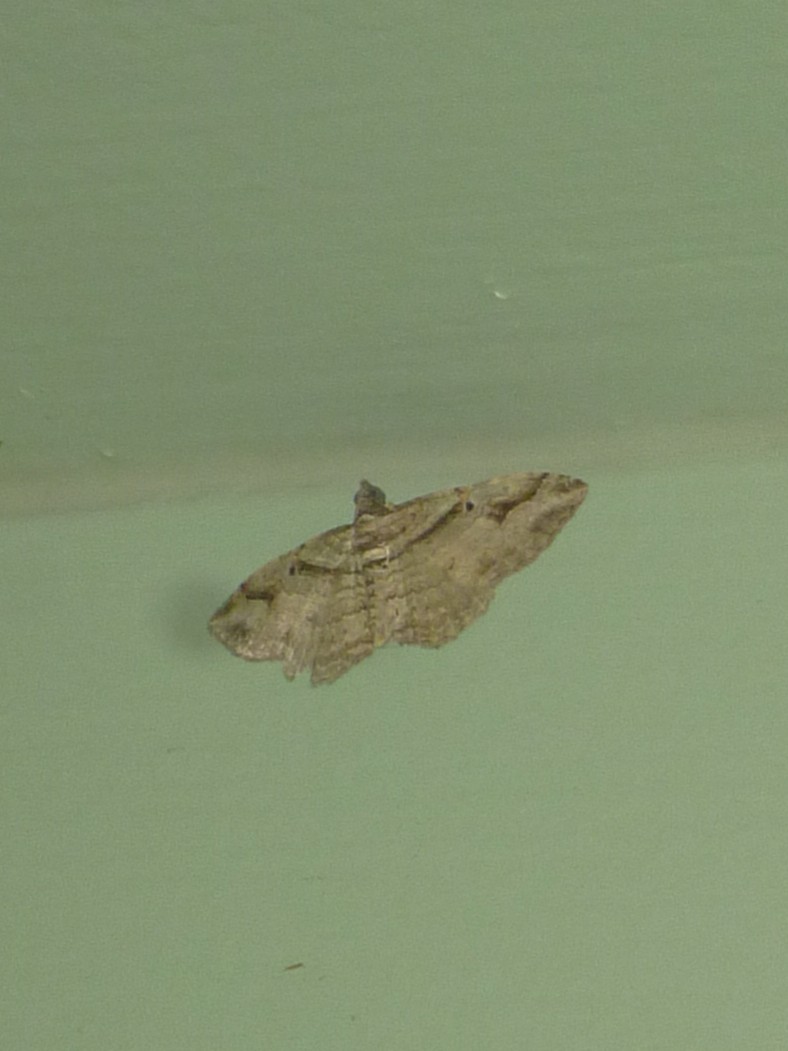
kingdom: Animalia
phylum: Arthropoda
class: Insecta
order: Lepidoptera
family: Geometridae
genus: Costaconvexa
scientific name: Costaconvexa centrostrigaria
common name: Bent-line carpet
